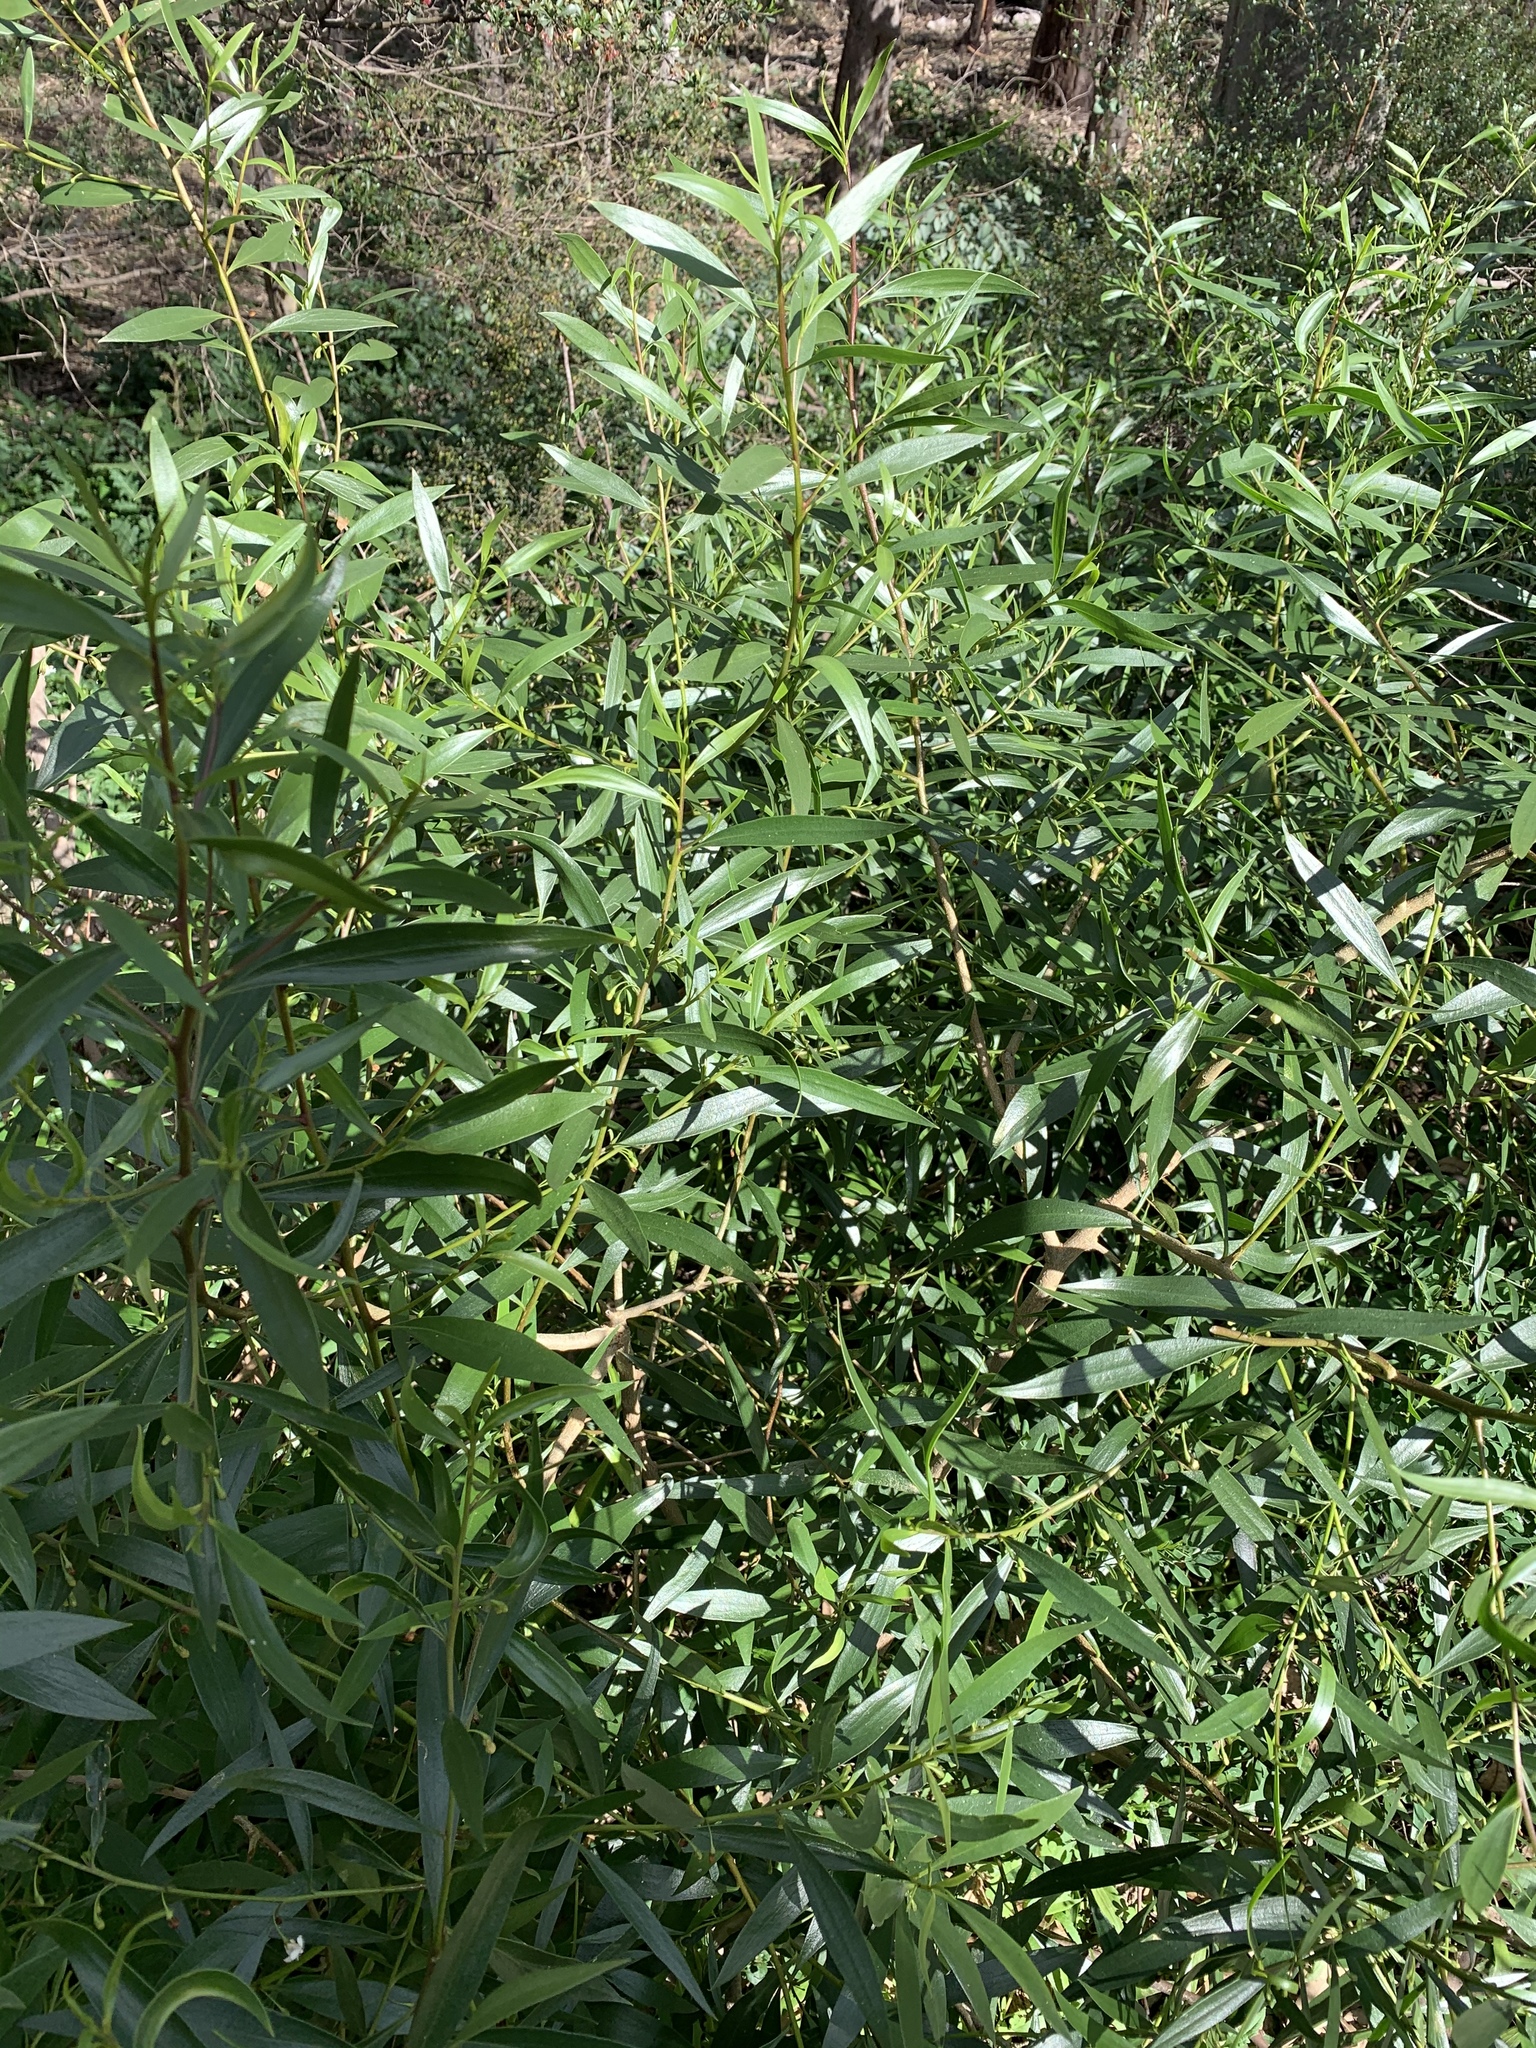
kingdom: Plantae
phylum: Tracheophyta
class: Magnoliopsida
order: Lamiales
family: Scrophulariaceae
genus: Myoporum
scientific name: Myoporum montanum
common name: Waterbush
